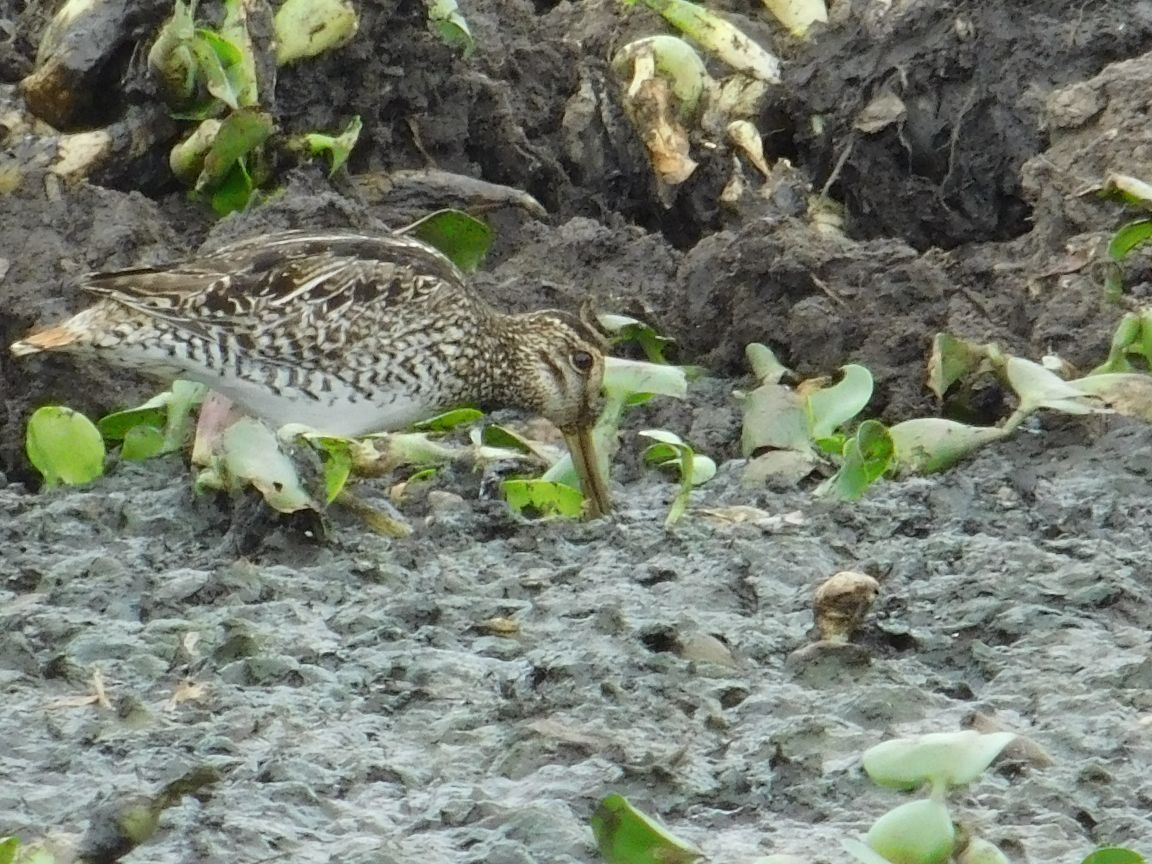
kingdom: Animalia
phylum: Chordata
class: Aves
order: Charadriiformes
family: Scolopacidae
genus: Gallinago
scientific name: Gallinago paraguaiae
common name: South american snipe
